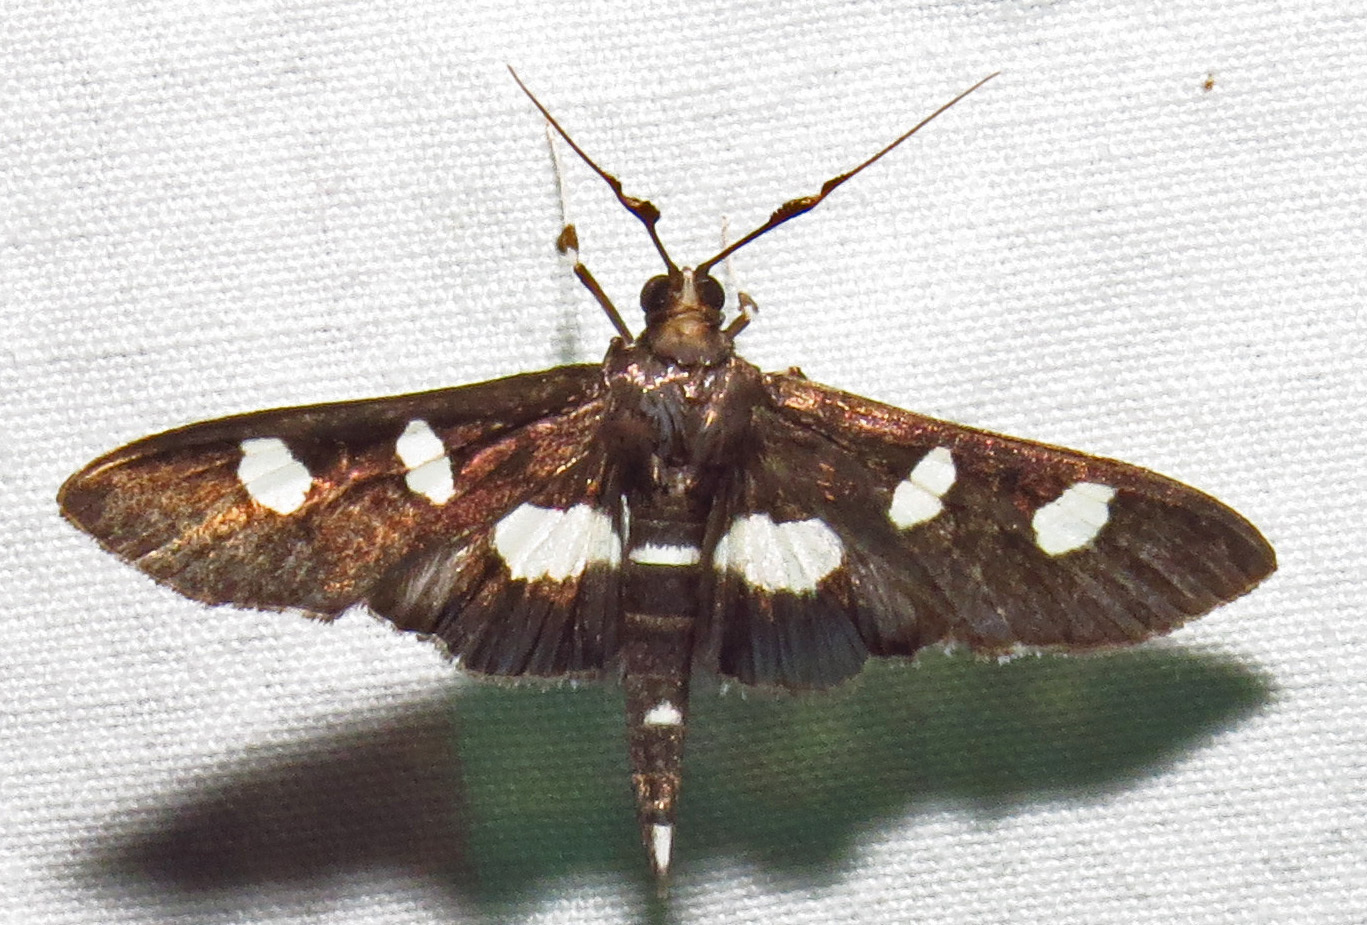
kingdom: Animalia
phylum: Arthropoda
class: Insecta
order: Lepidoptera
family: Crambidae
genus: Desmia
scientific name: Desmia funeralis
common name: Grape leaf folder moth
